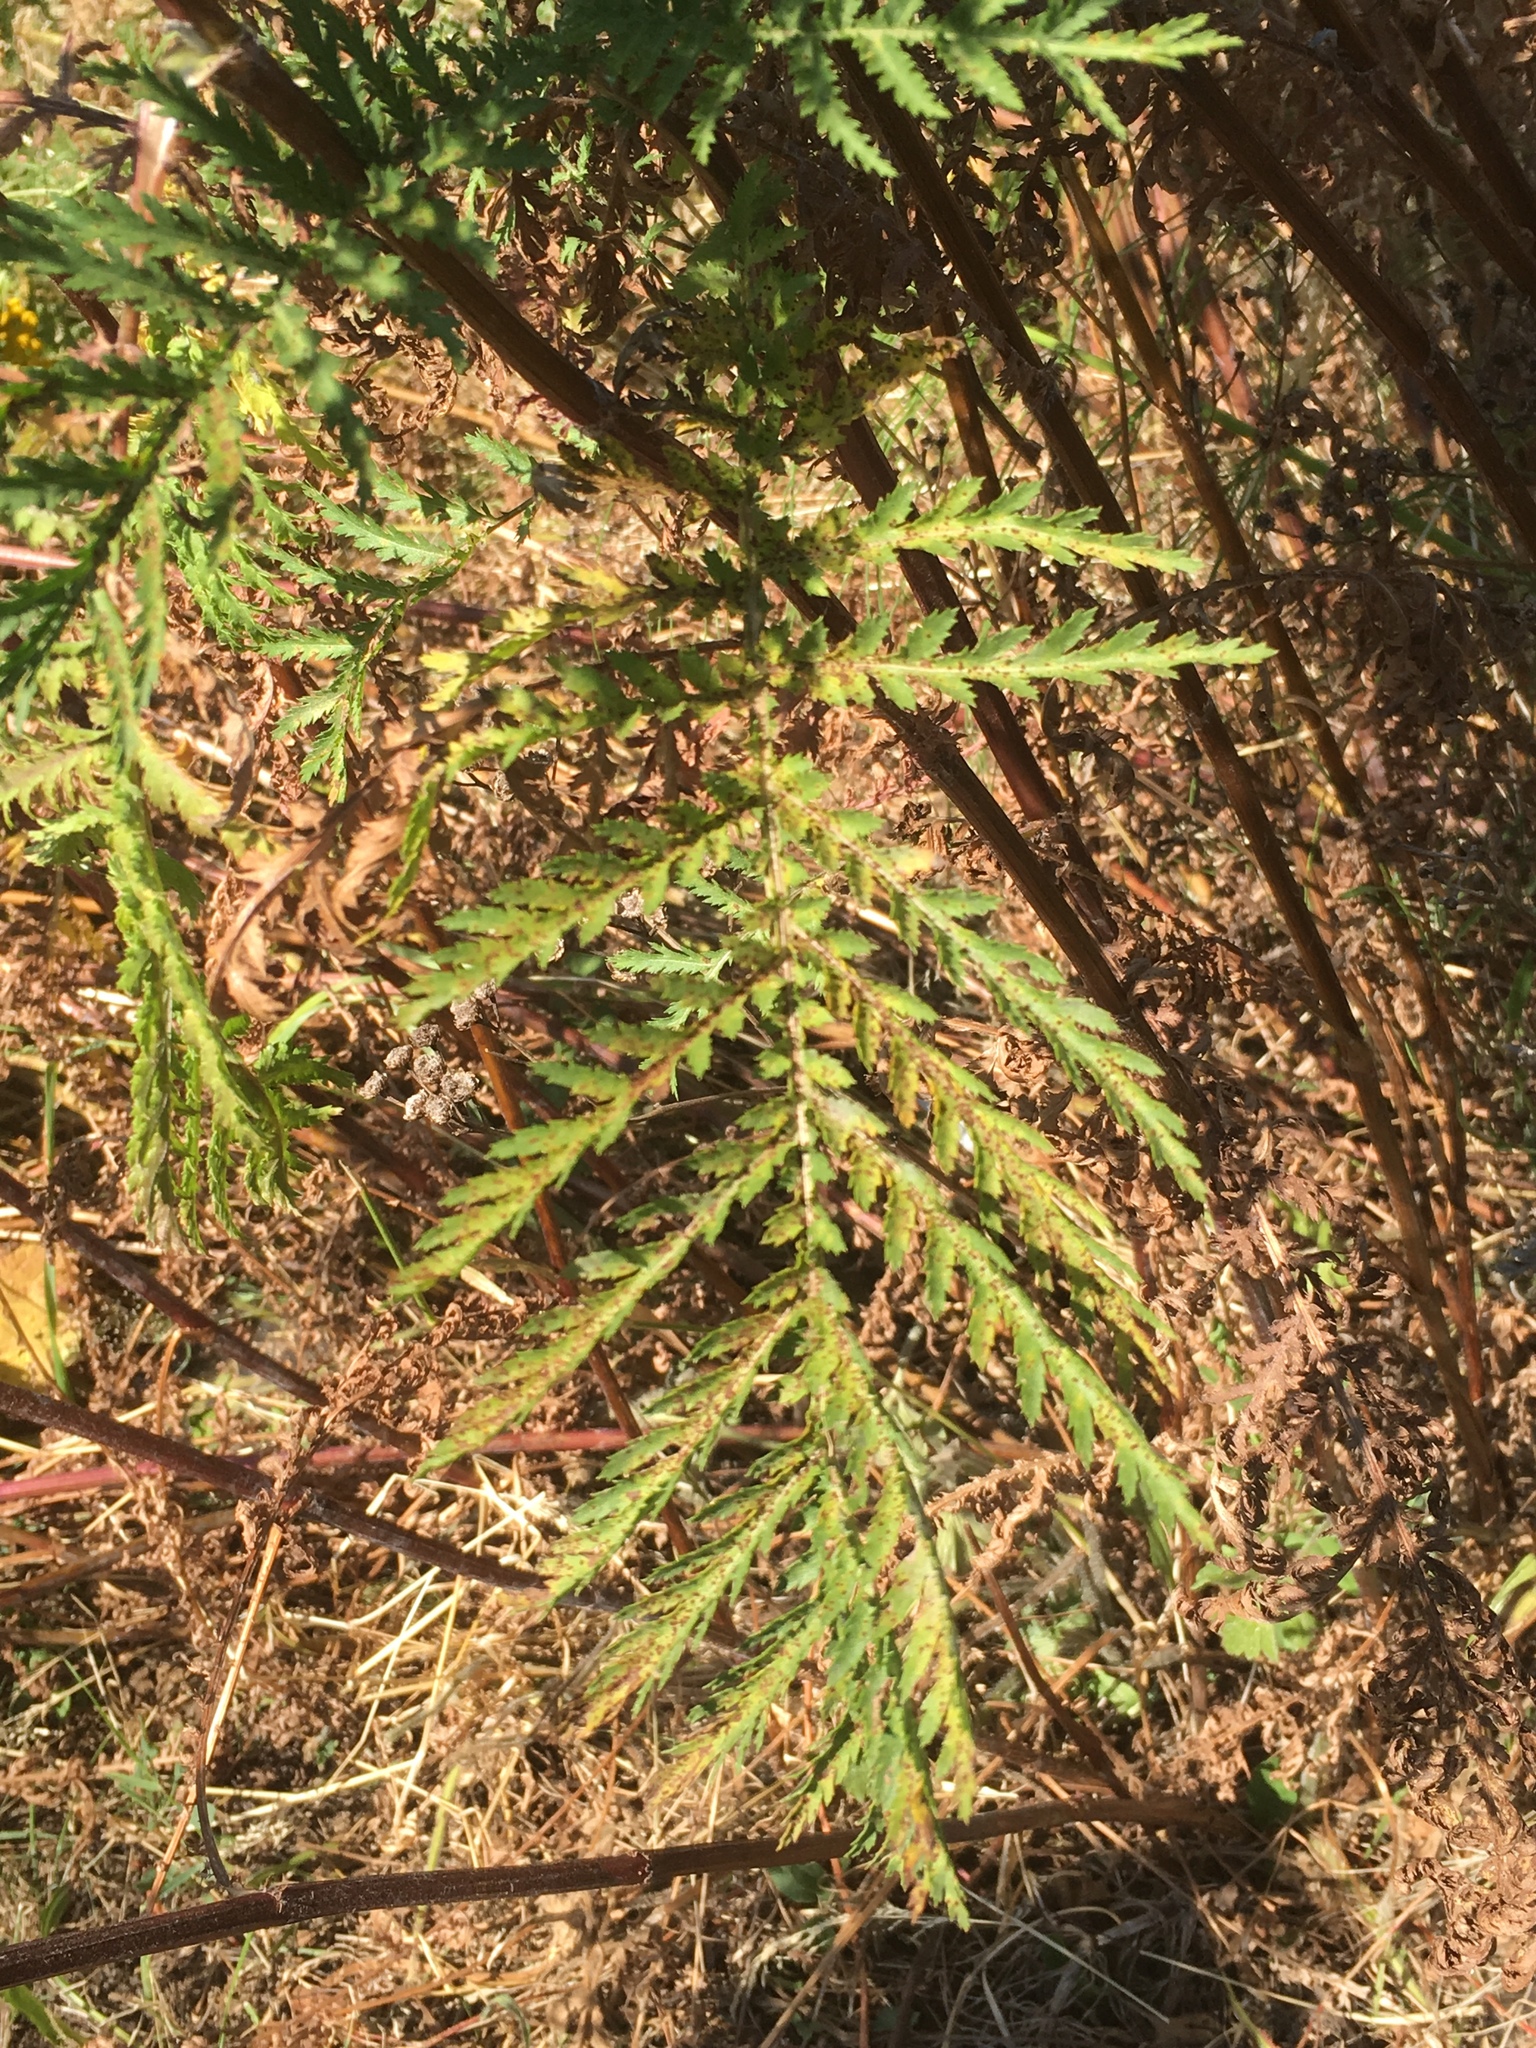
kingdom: Plantae
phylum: Tracheophyta
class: Magnoliopsida
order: Asterales
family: Asteraceae
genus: Tanacetum
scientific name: Tanacetum vulgare
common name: Common tansy
